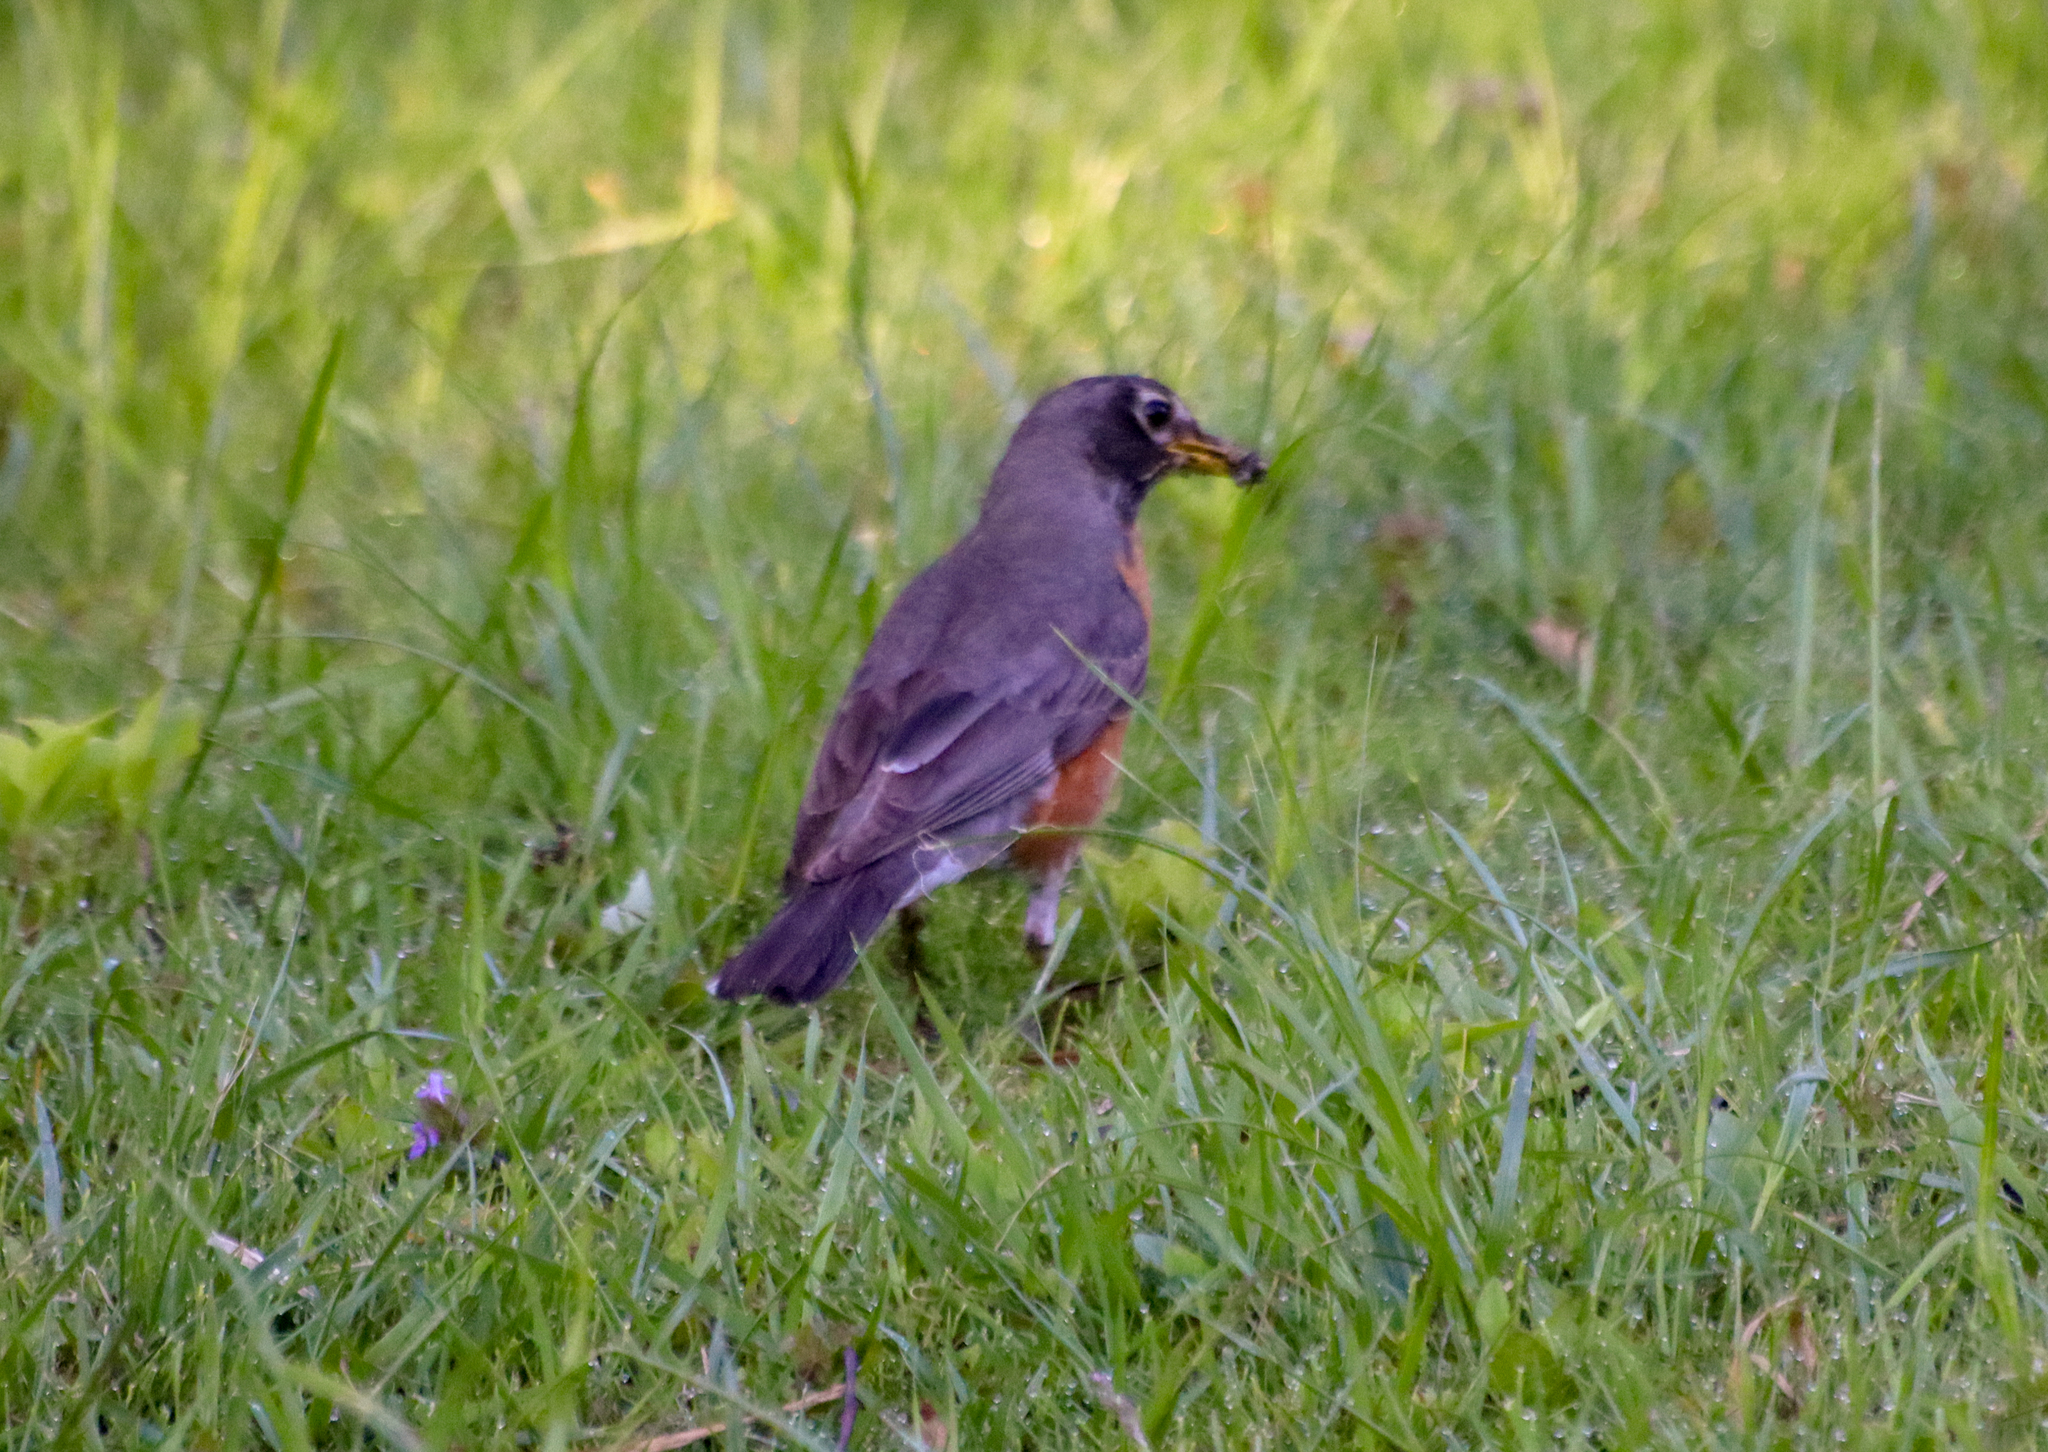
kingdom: Animalia
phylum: Chordata
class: Aves
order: Passeriformes
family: Turdidae
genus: Turdus
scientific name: Turdus migratorius
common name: American robin
